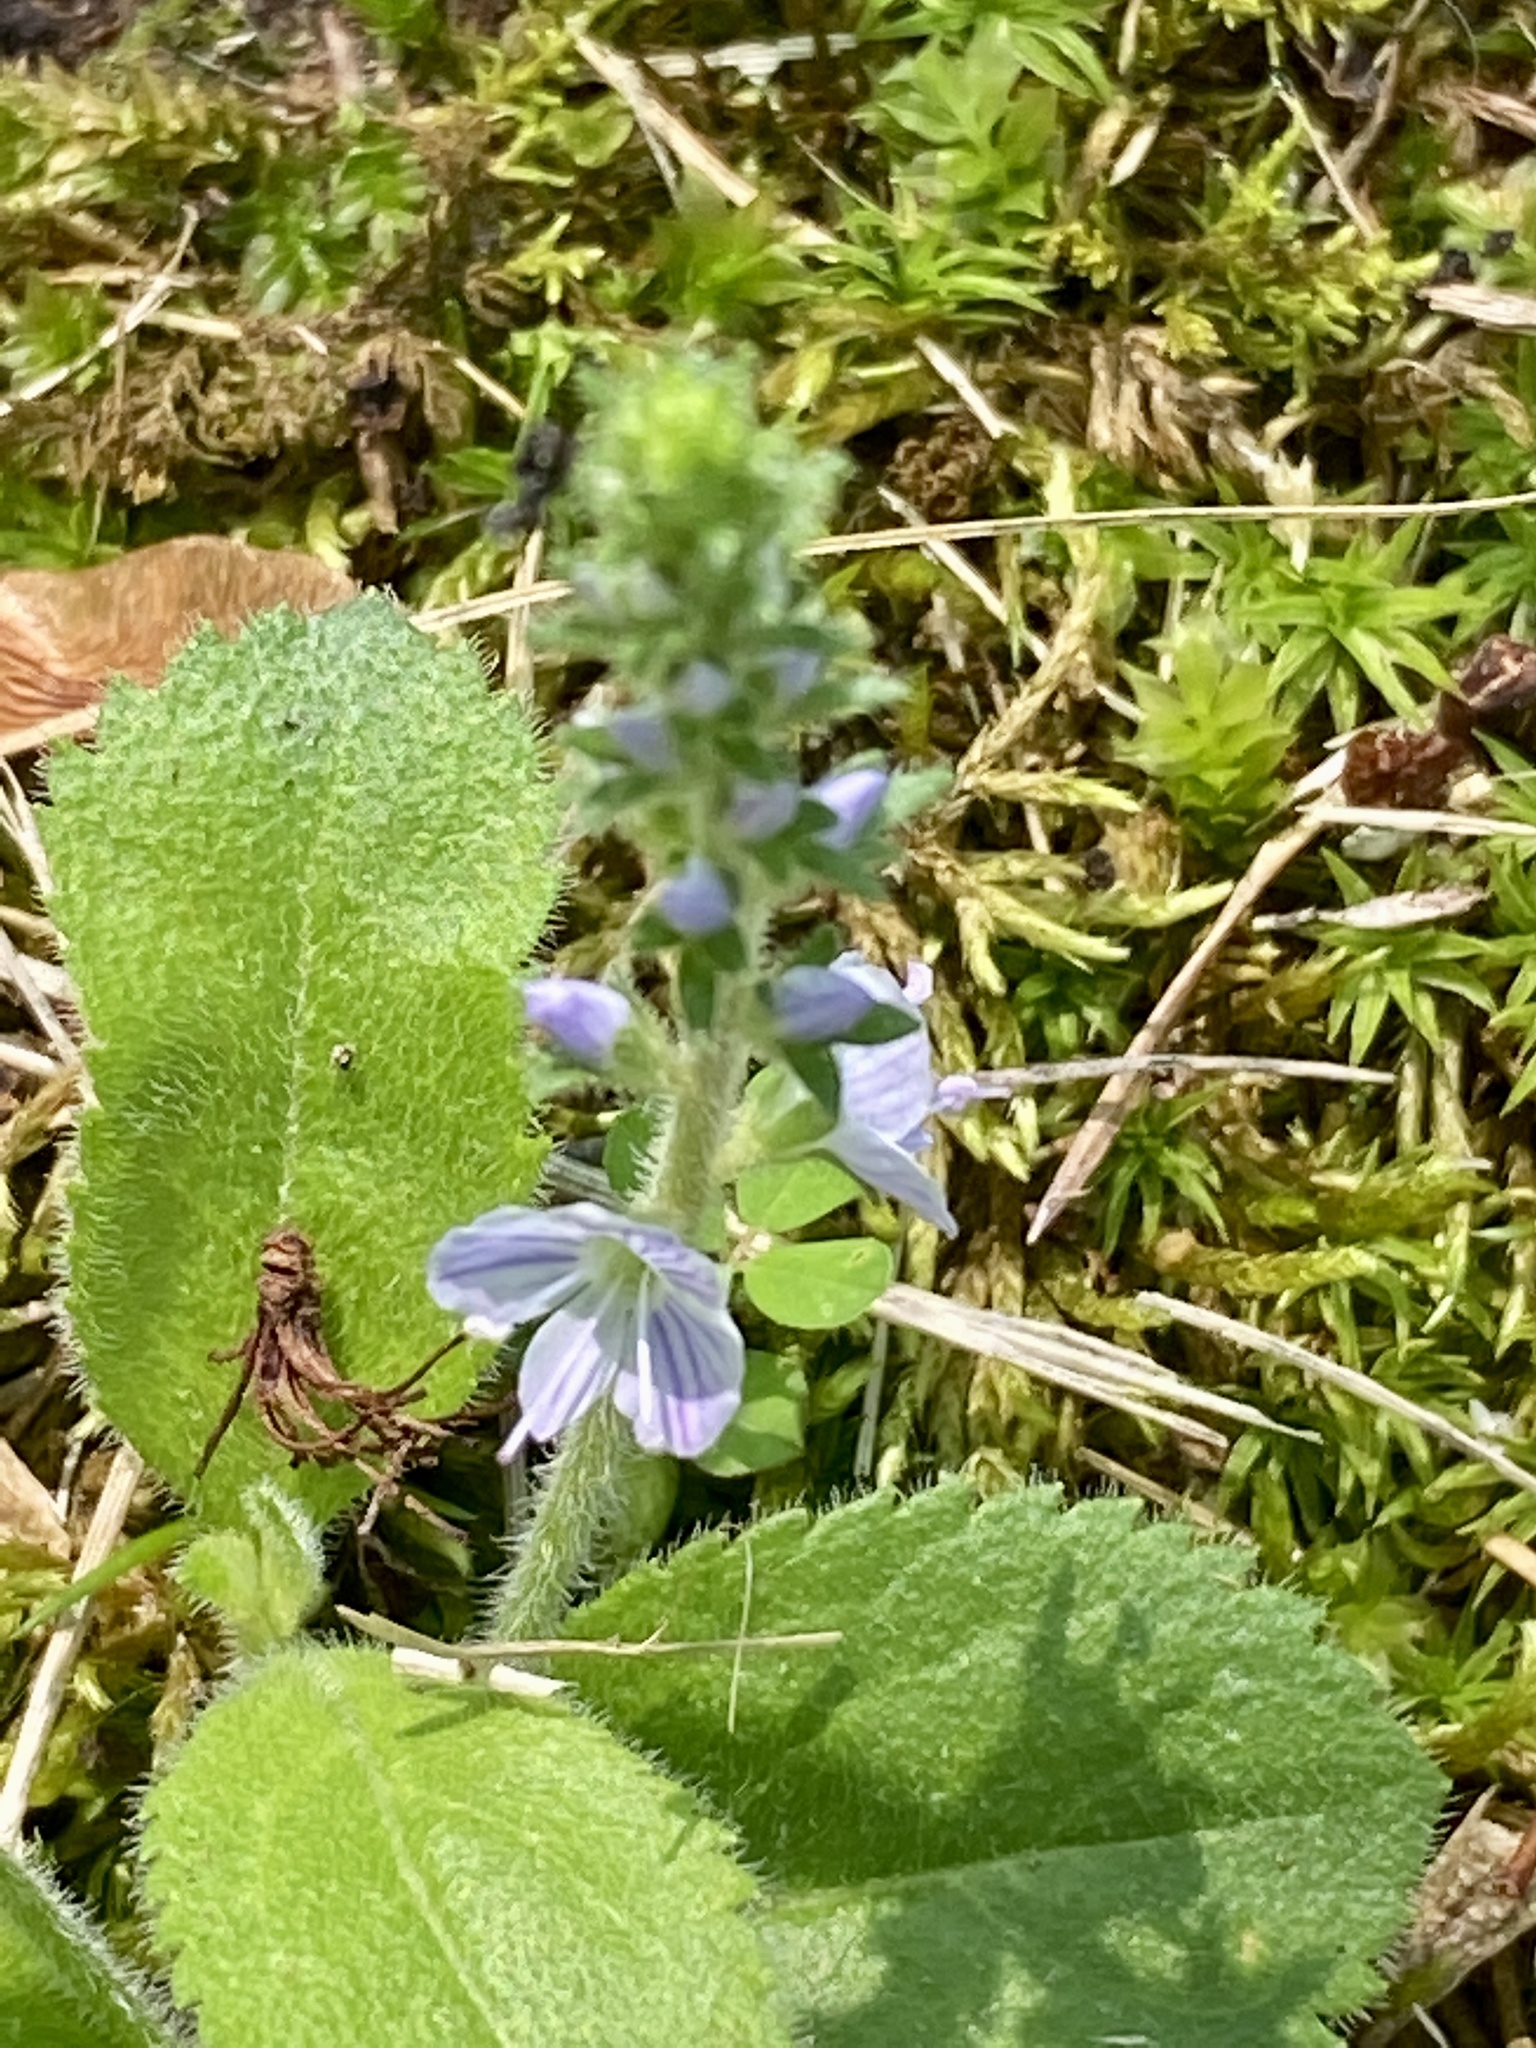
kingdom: Plantae
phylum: Tracheophyta
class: Magnoliopsida
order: Lamiales
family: Plantaginaceae
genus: Veronica
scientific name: Veronica officinalis
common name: Common speedwell
